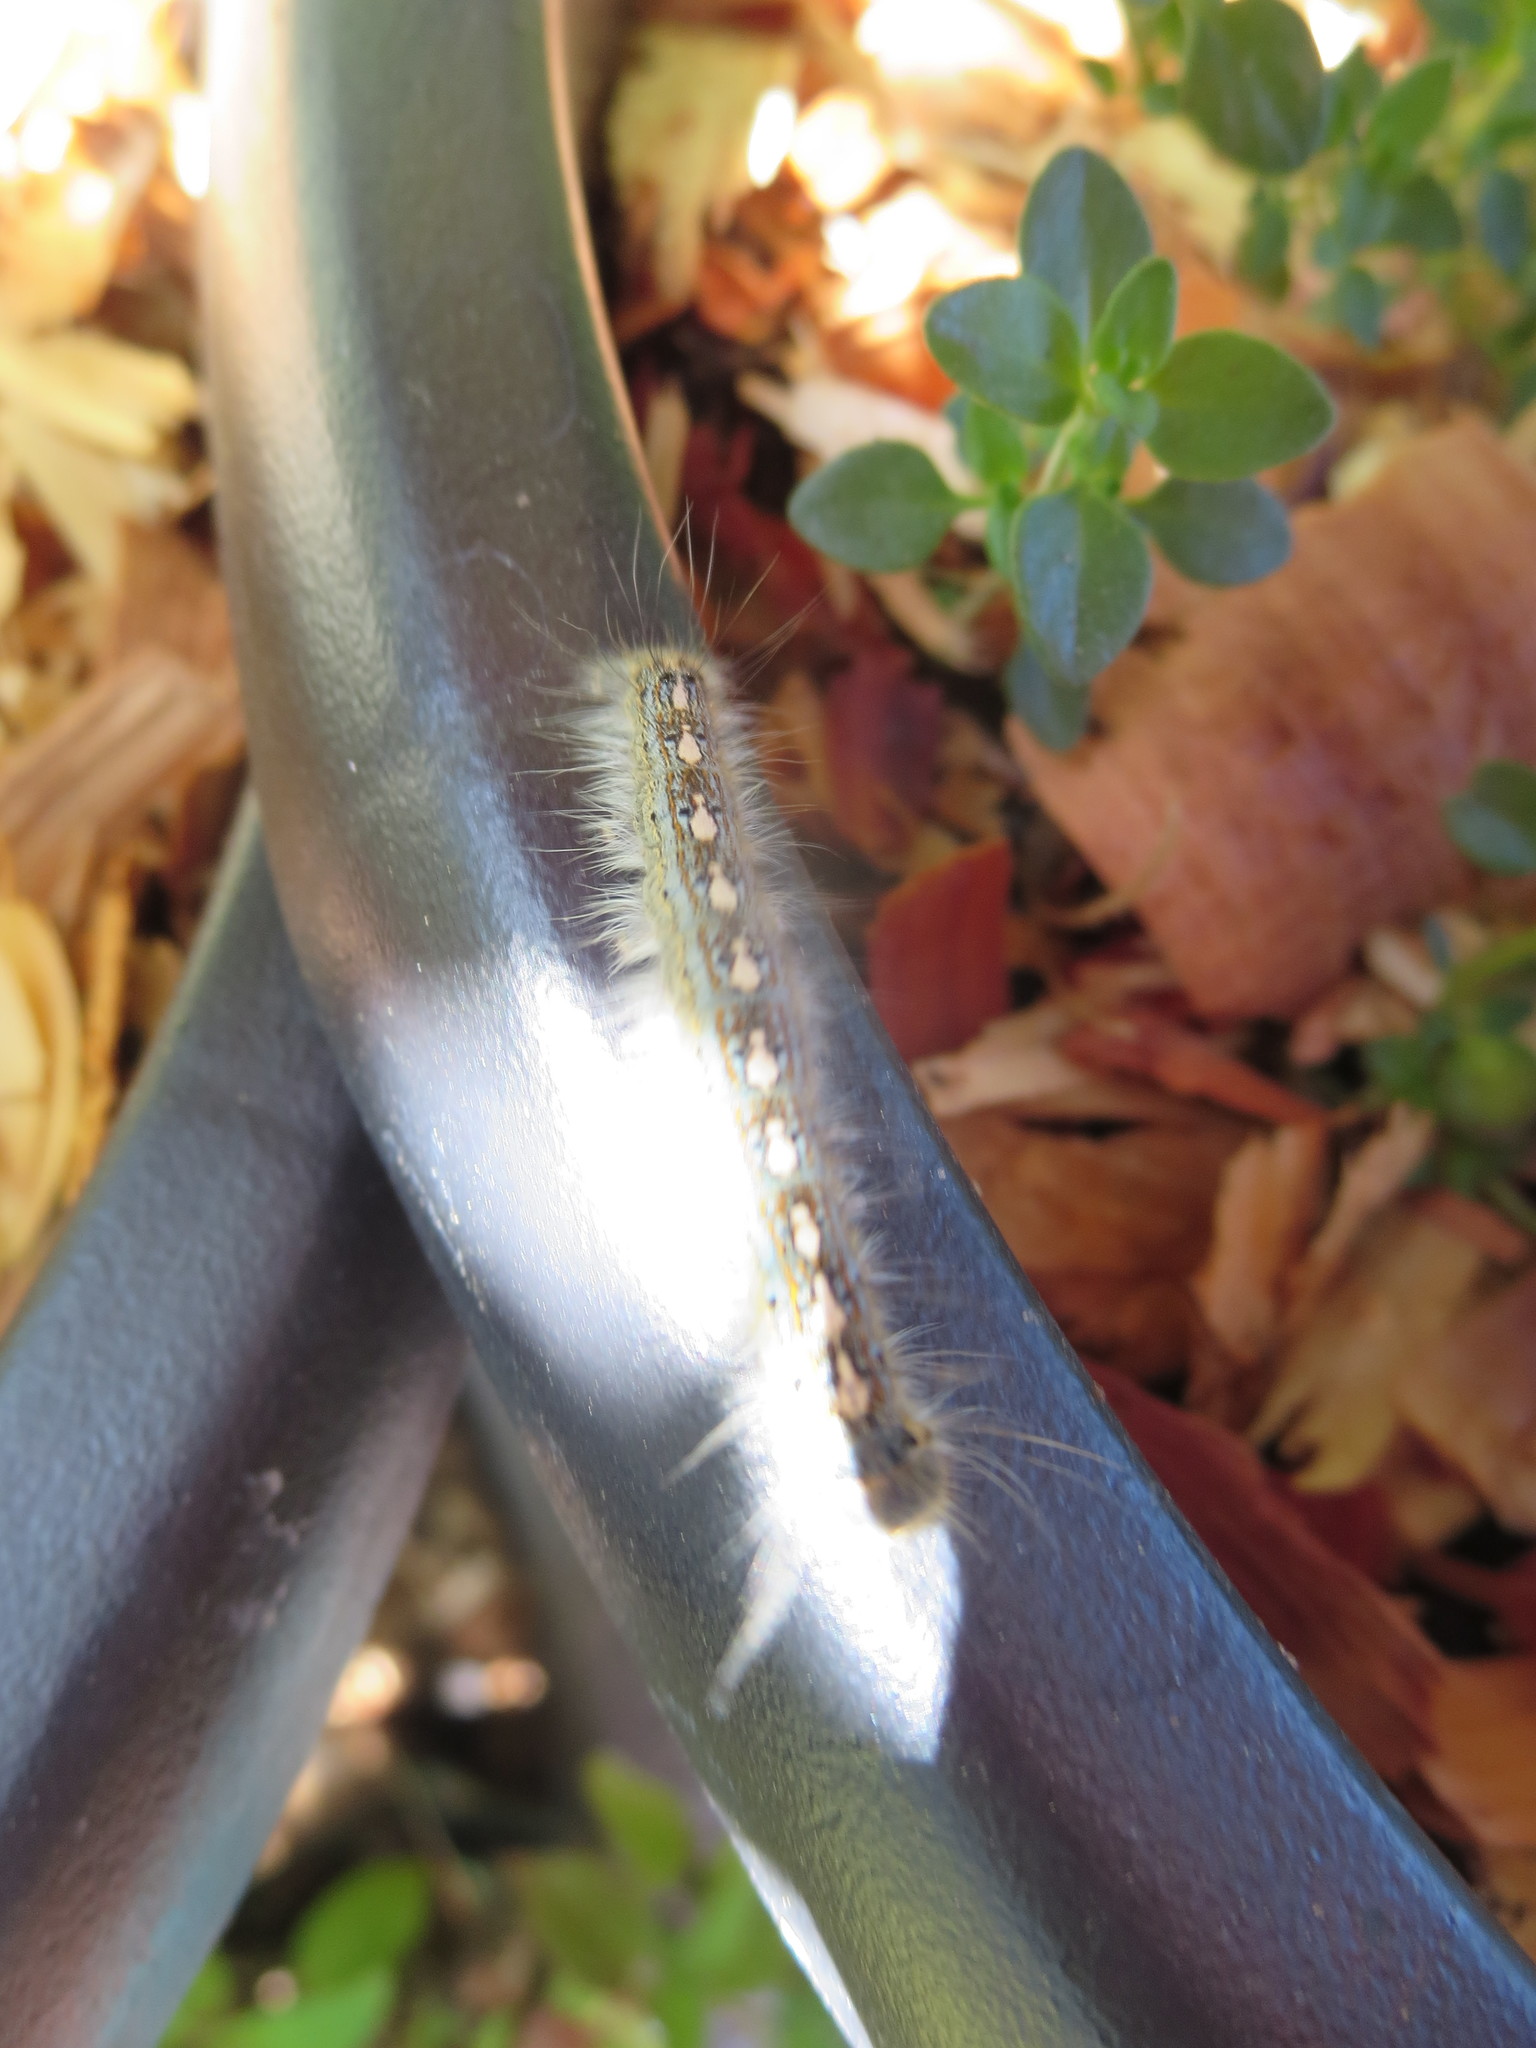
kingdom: Animalia
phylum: Arthropoda
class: Insecta
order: Lepidoptera
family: Lasiocampidae
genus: Malacosoma
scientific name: Malacosoma disstria
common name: Forest tent caterpillar
